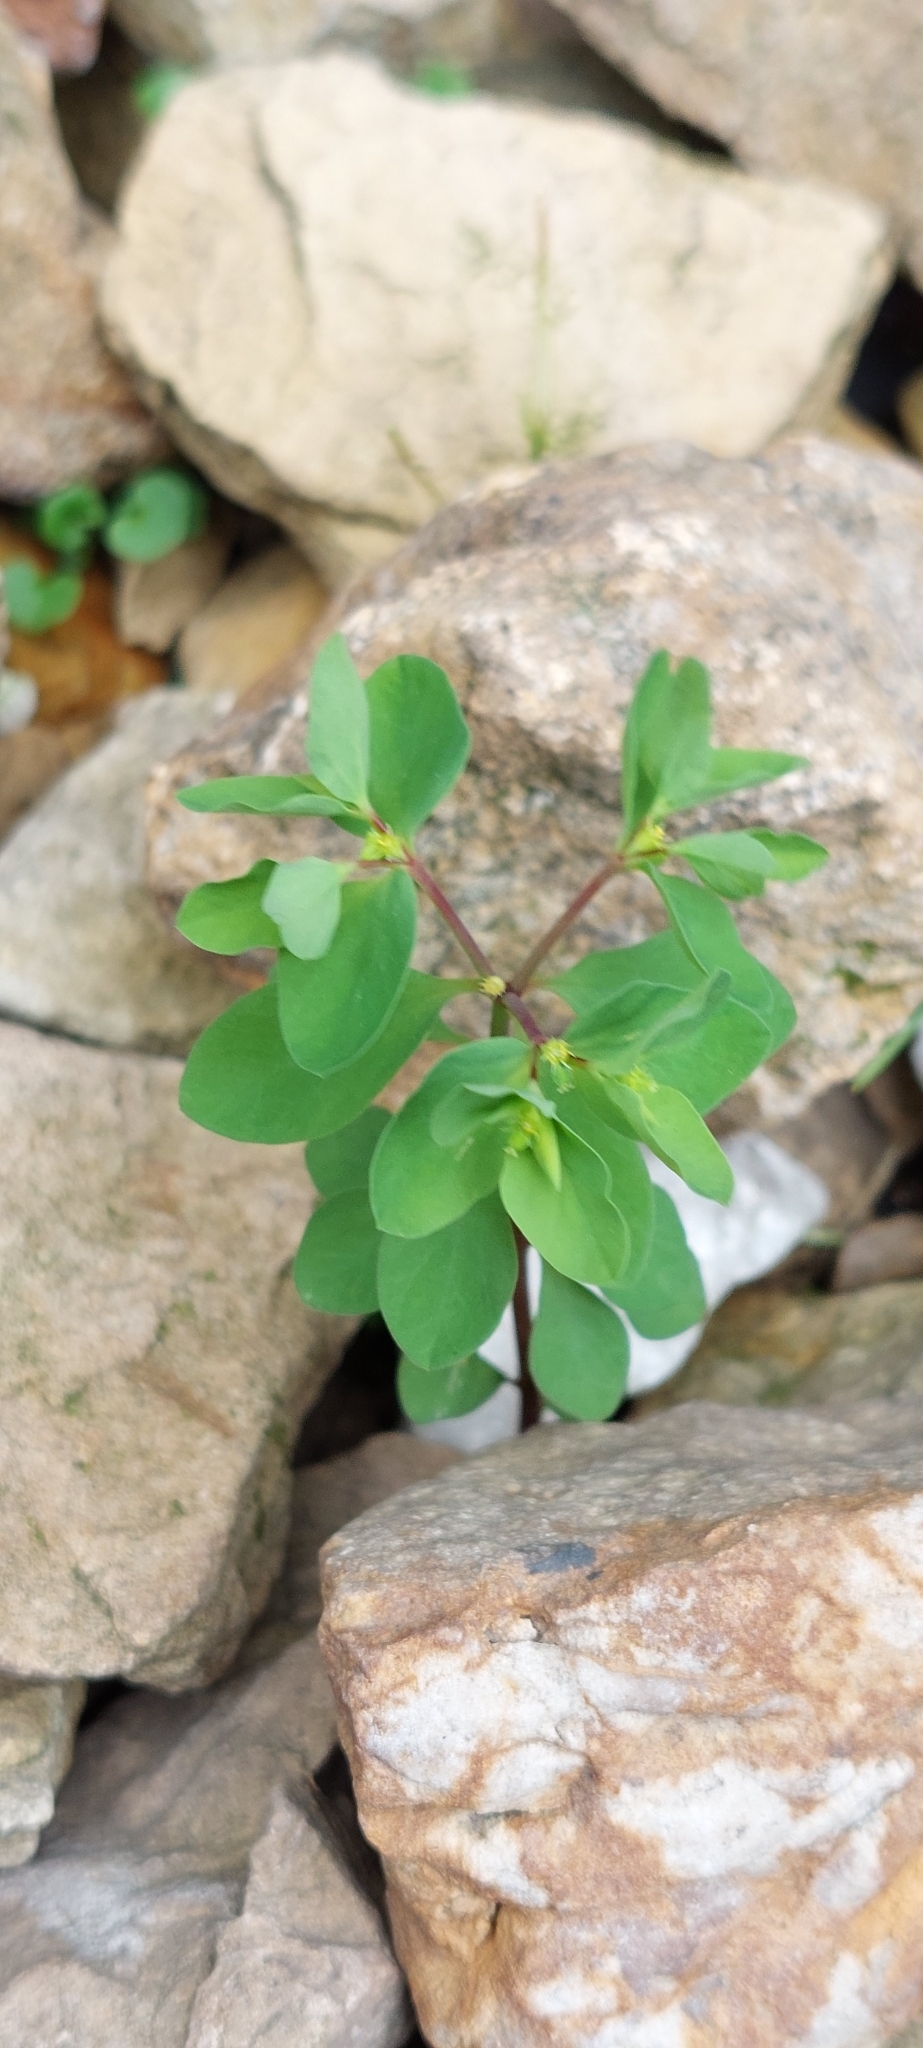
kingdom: Plantae
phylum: Tracheophyta
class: Magnoliopsida
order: Malpighiales
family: Euphorbiaceae
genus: Euphorbia
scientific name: Euphorbia peplus
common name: Petty spurge
